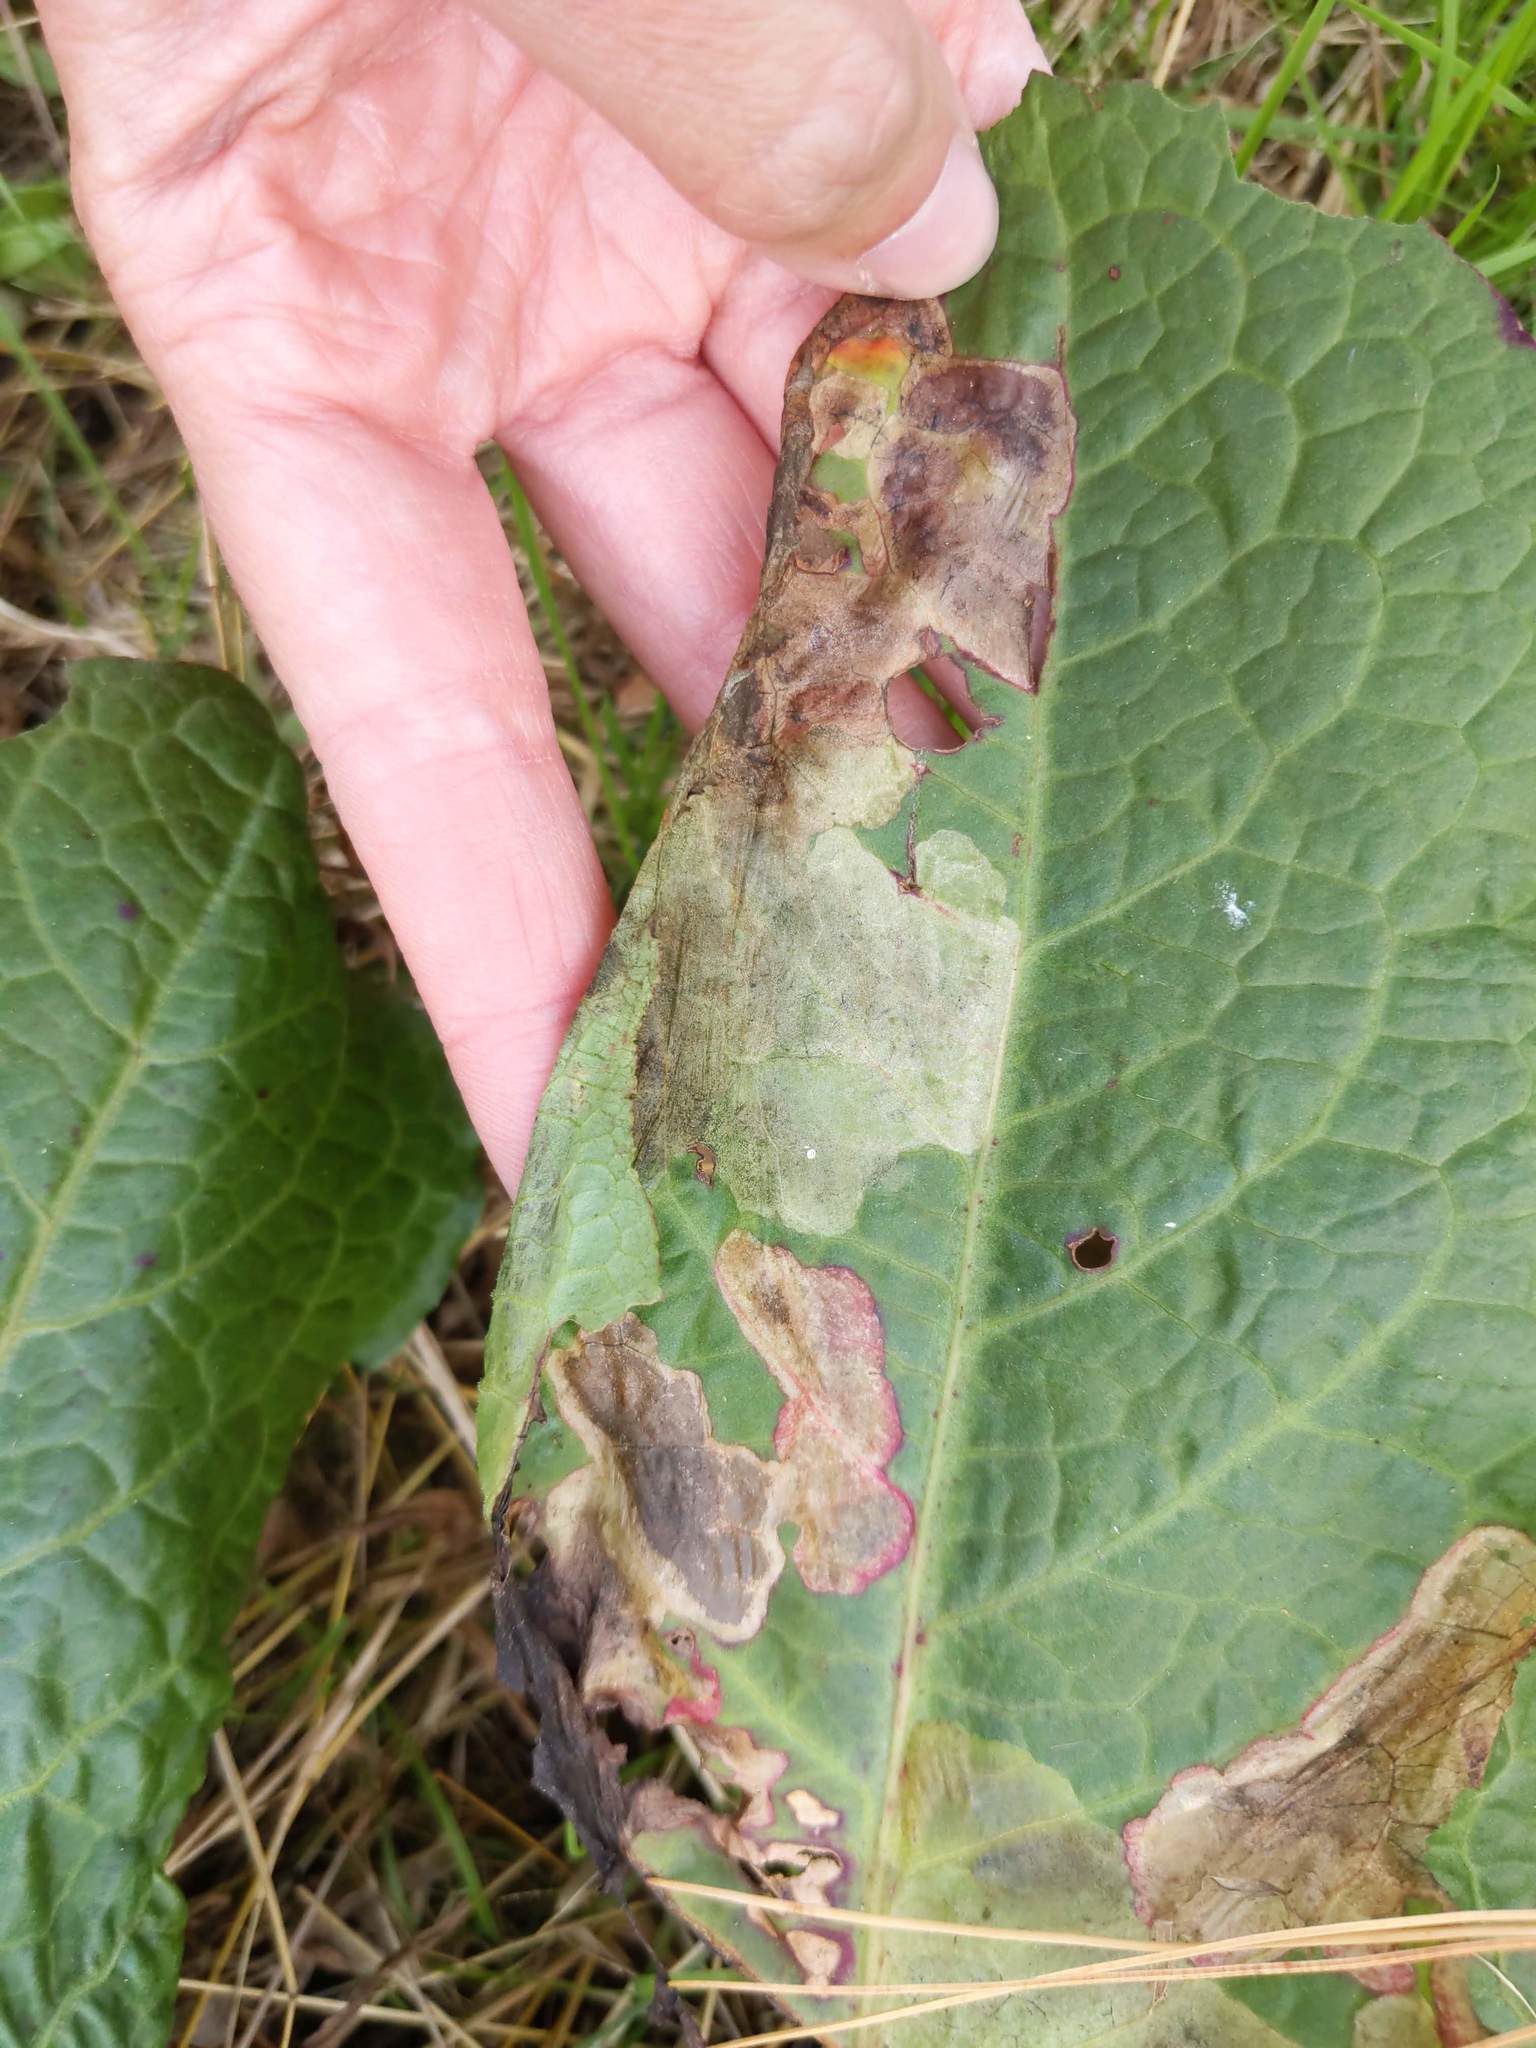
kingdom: Animalia
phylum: Arthropoda
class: Insecta
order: Diptera
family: Anthomyiidae
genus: Pegomya
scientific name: Pegomya bicolor
